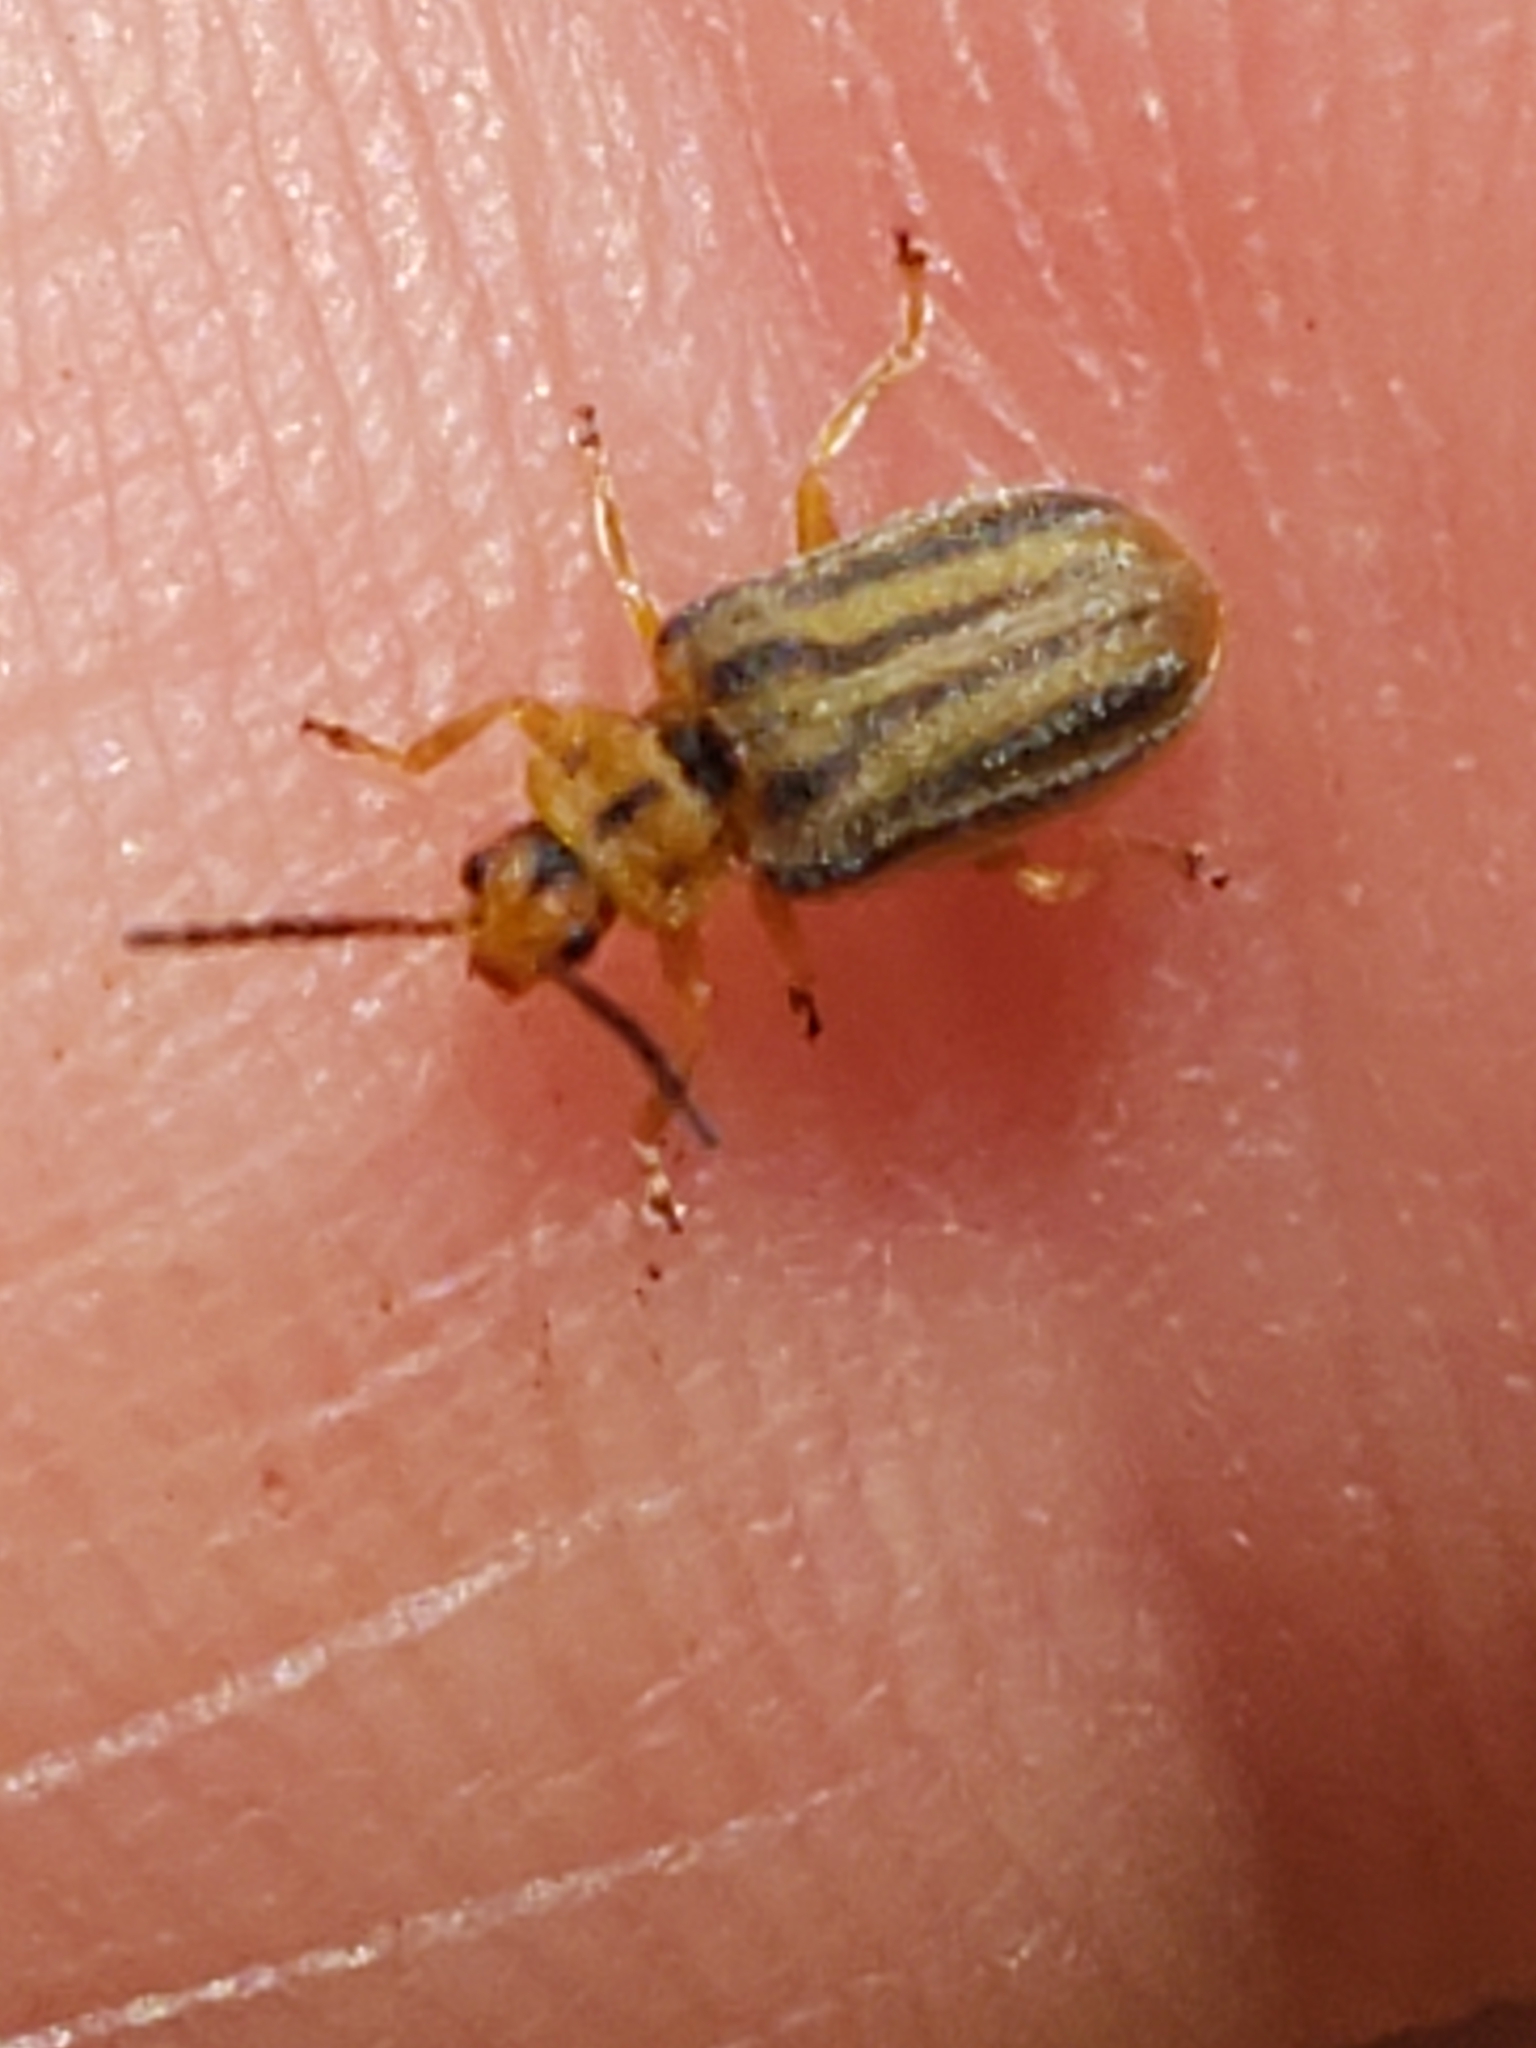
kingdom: Animalia
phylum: Arthropoda
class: Insecta
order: Coleoptera
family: Chrysomelidae
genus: Ophraella
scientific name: Ophraella notata
